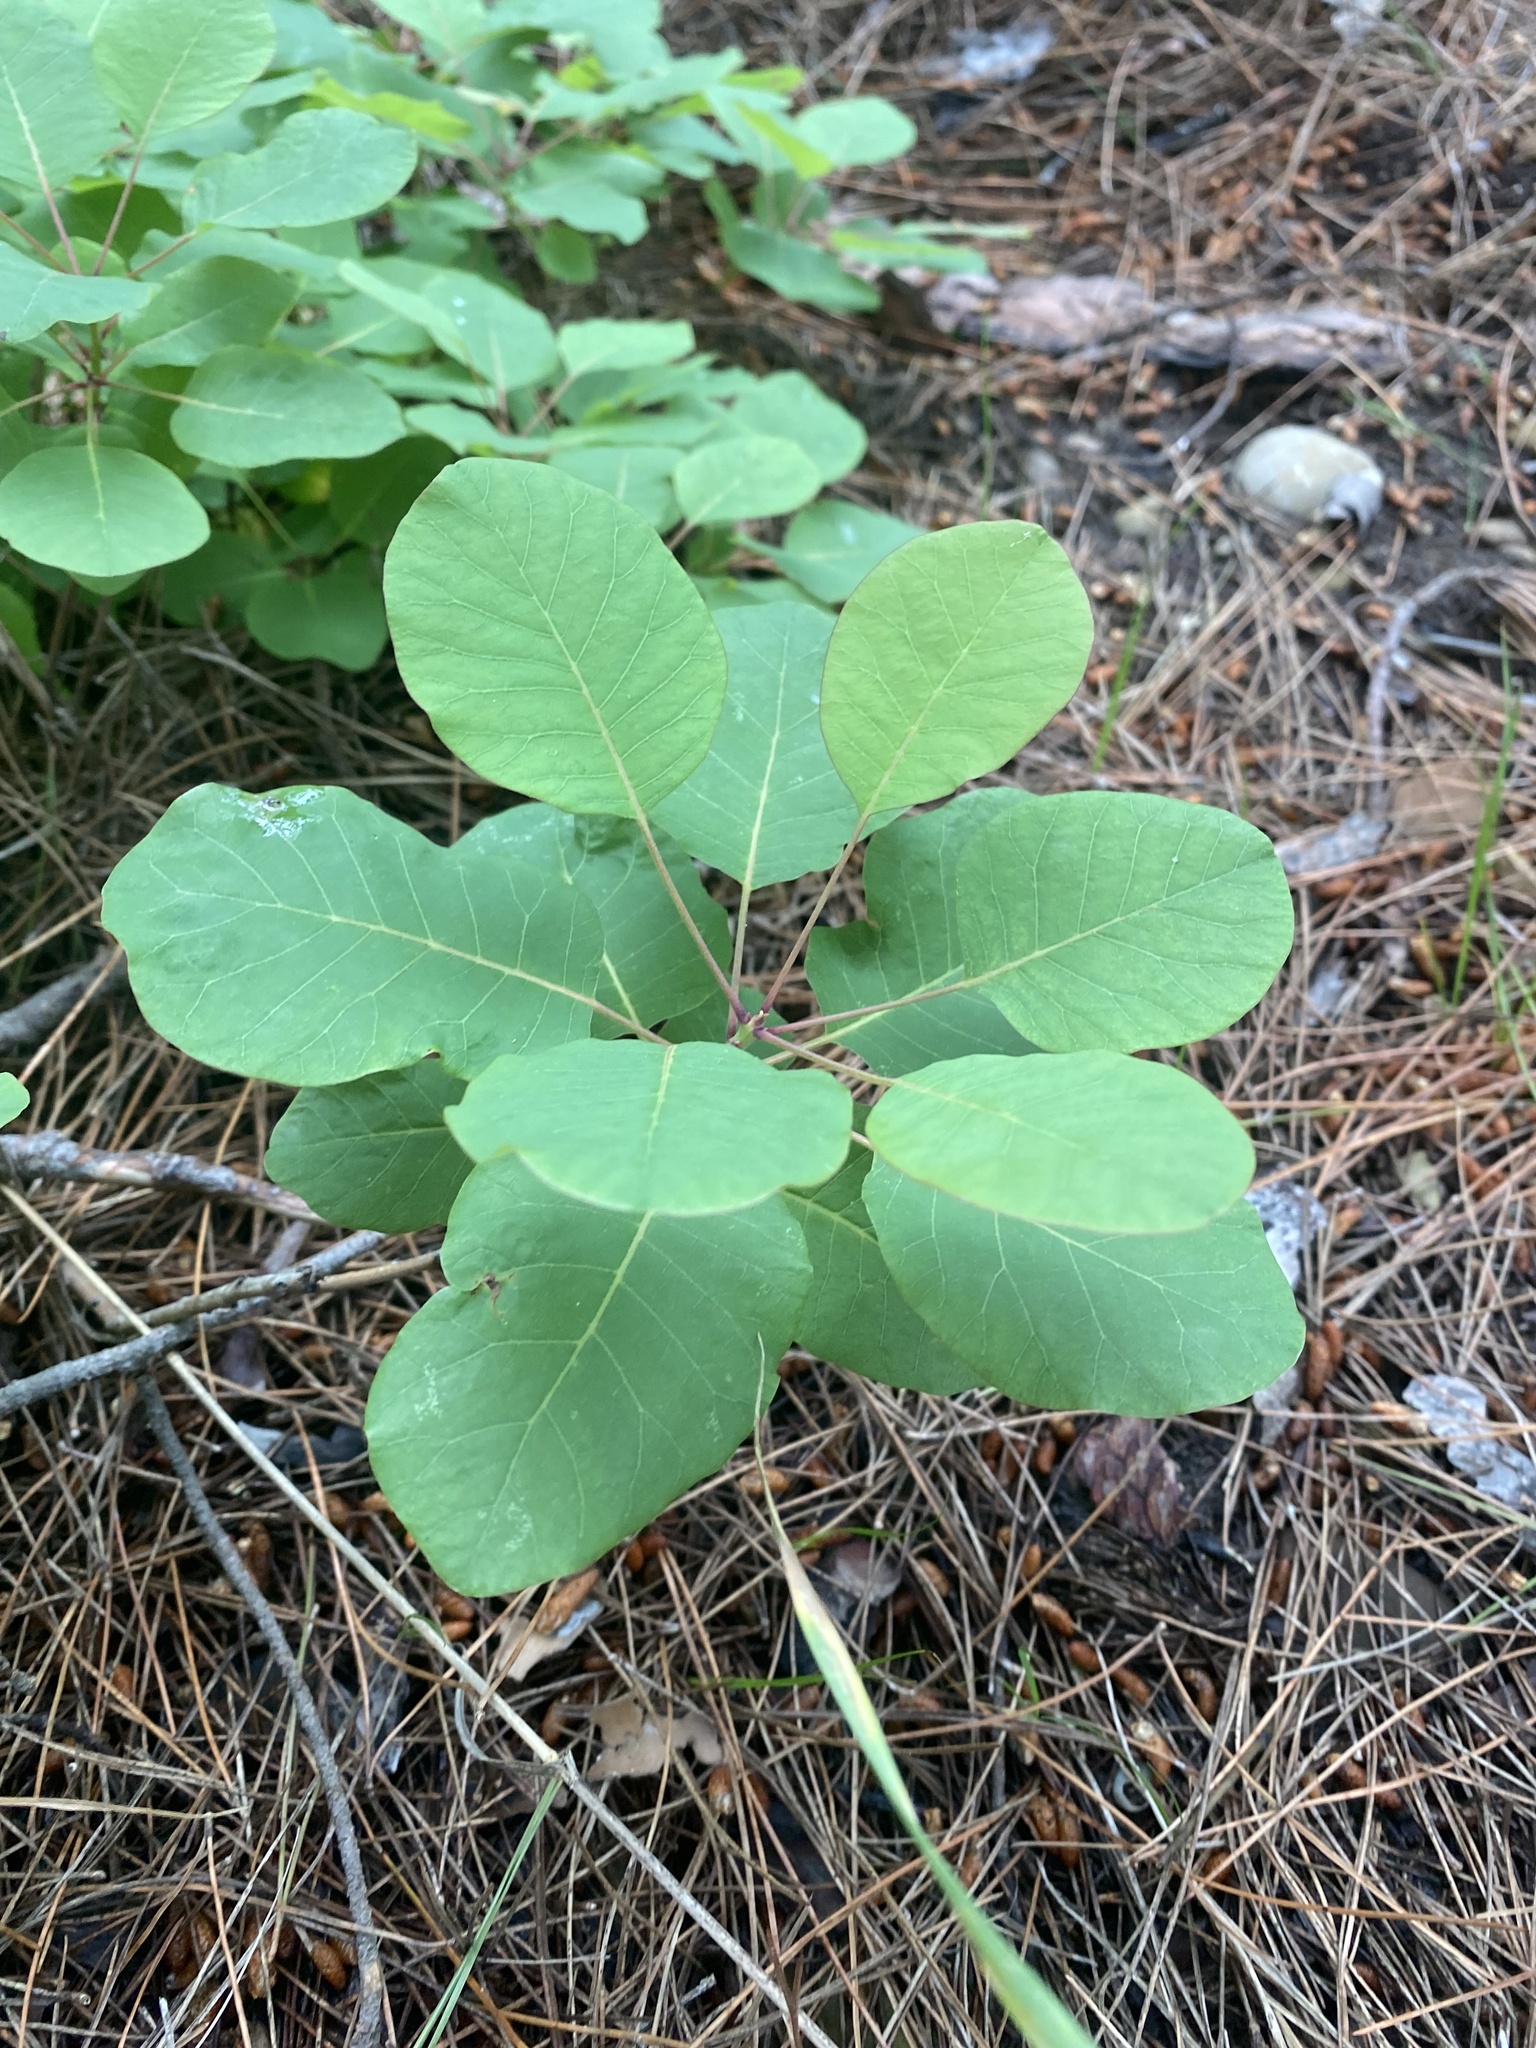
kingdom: Plantae
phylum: Tracheophyta
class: Magnoliopsida
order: Sapindales
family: Anacardiaceae
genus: Cotinus
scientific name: Cotinus coggygria
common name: Smoke-tree
